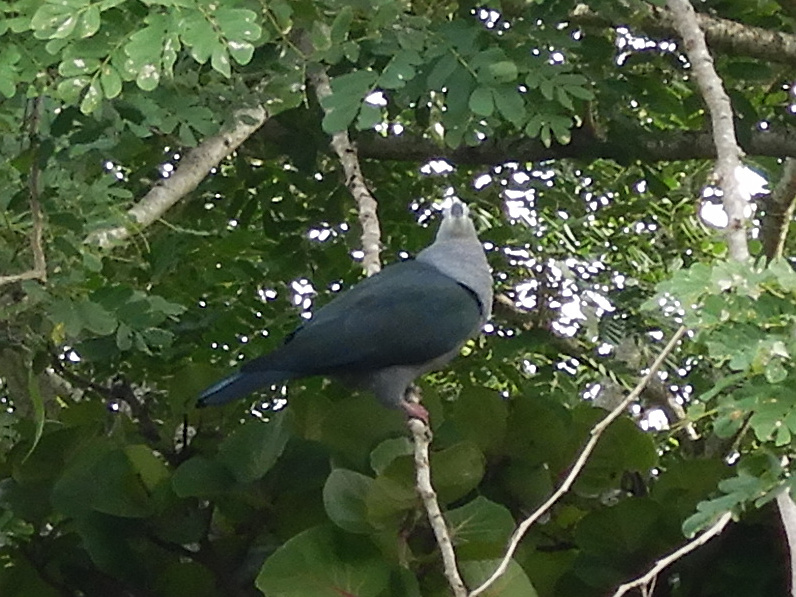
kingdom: Animalia
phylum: Chordata
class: Aves
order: Columbiformes
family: Columbidae
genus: Ducula
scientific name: Ducula pacifica
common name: Pacific imperial-pigeon
